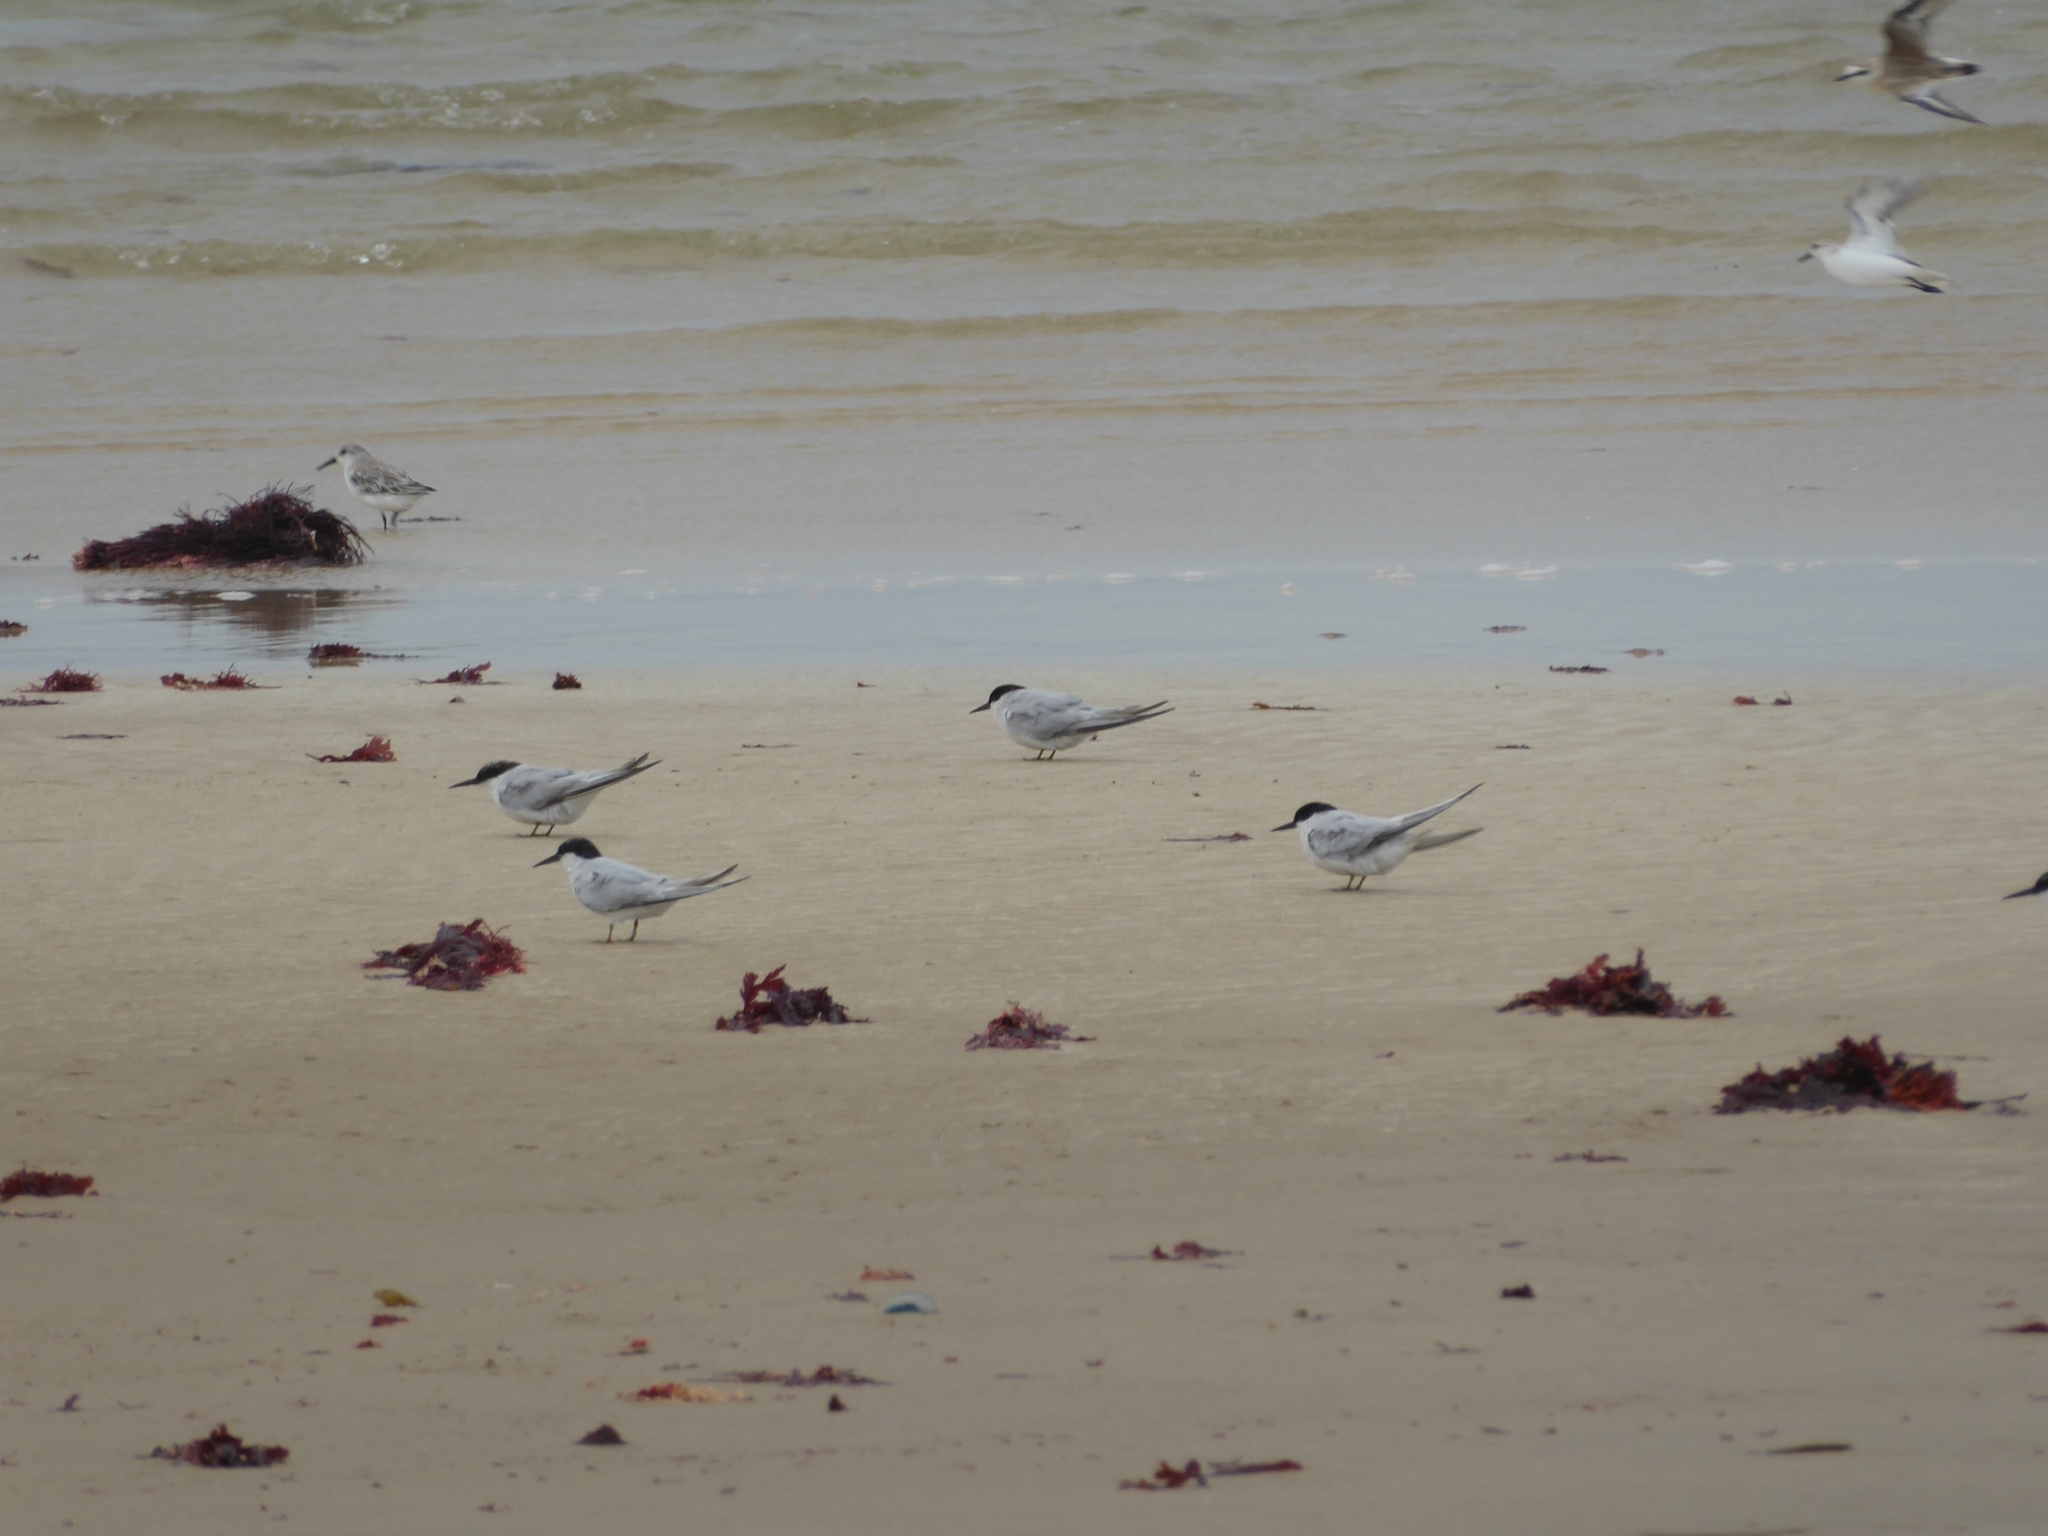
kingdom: Animalia
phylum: Chordata
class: Aves
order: Charadriiformes
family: Laridae
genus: Sternula
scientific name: Sternula balaenarum
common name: Damara tern
